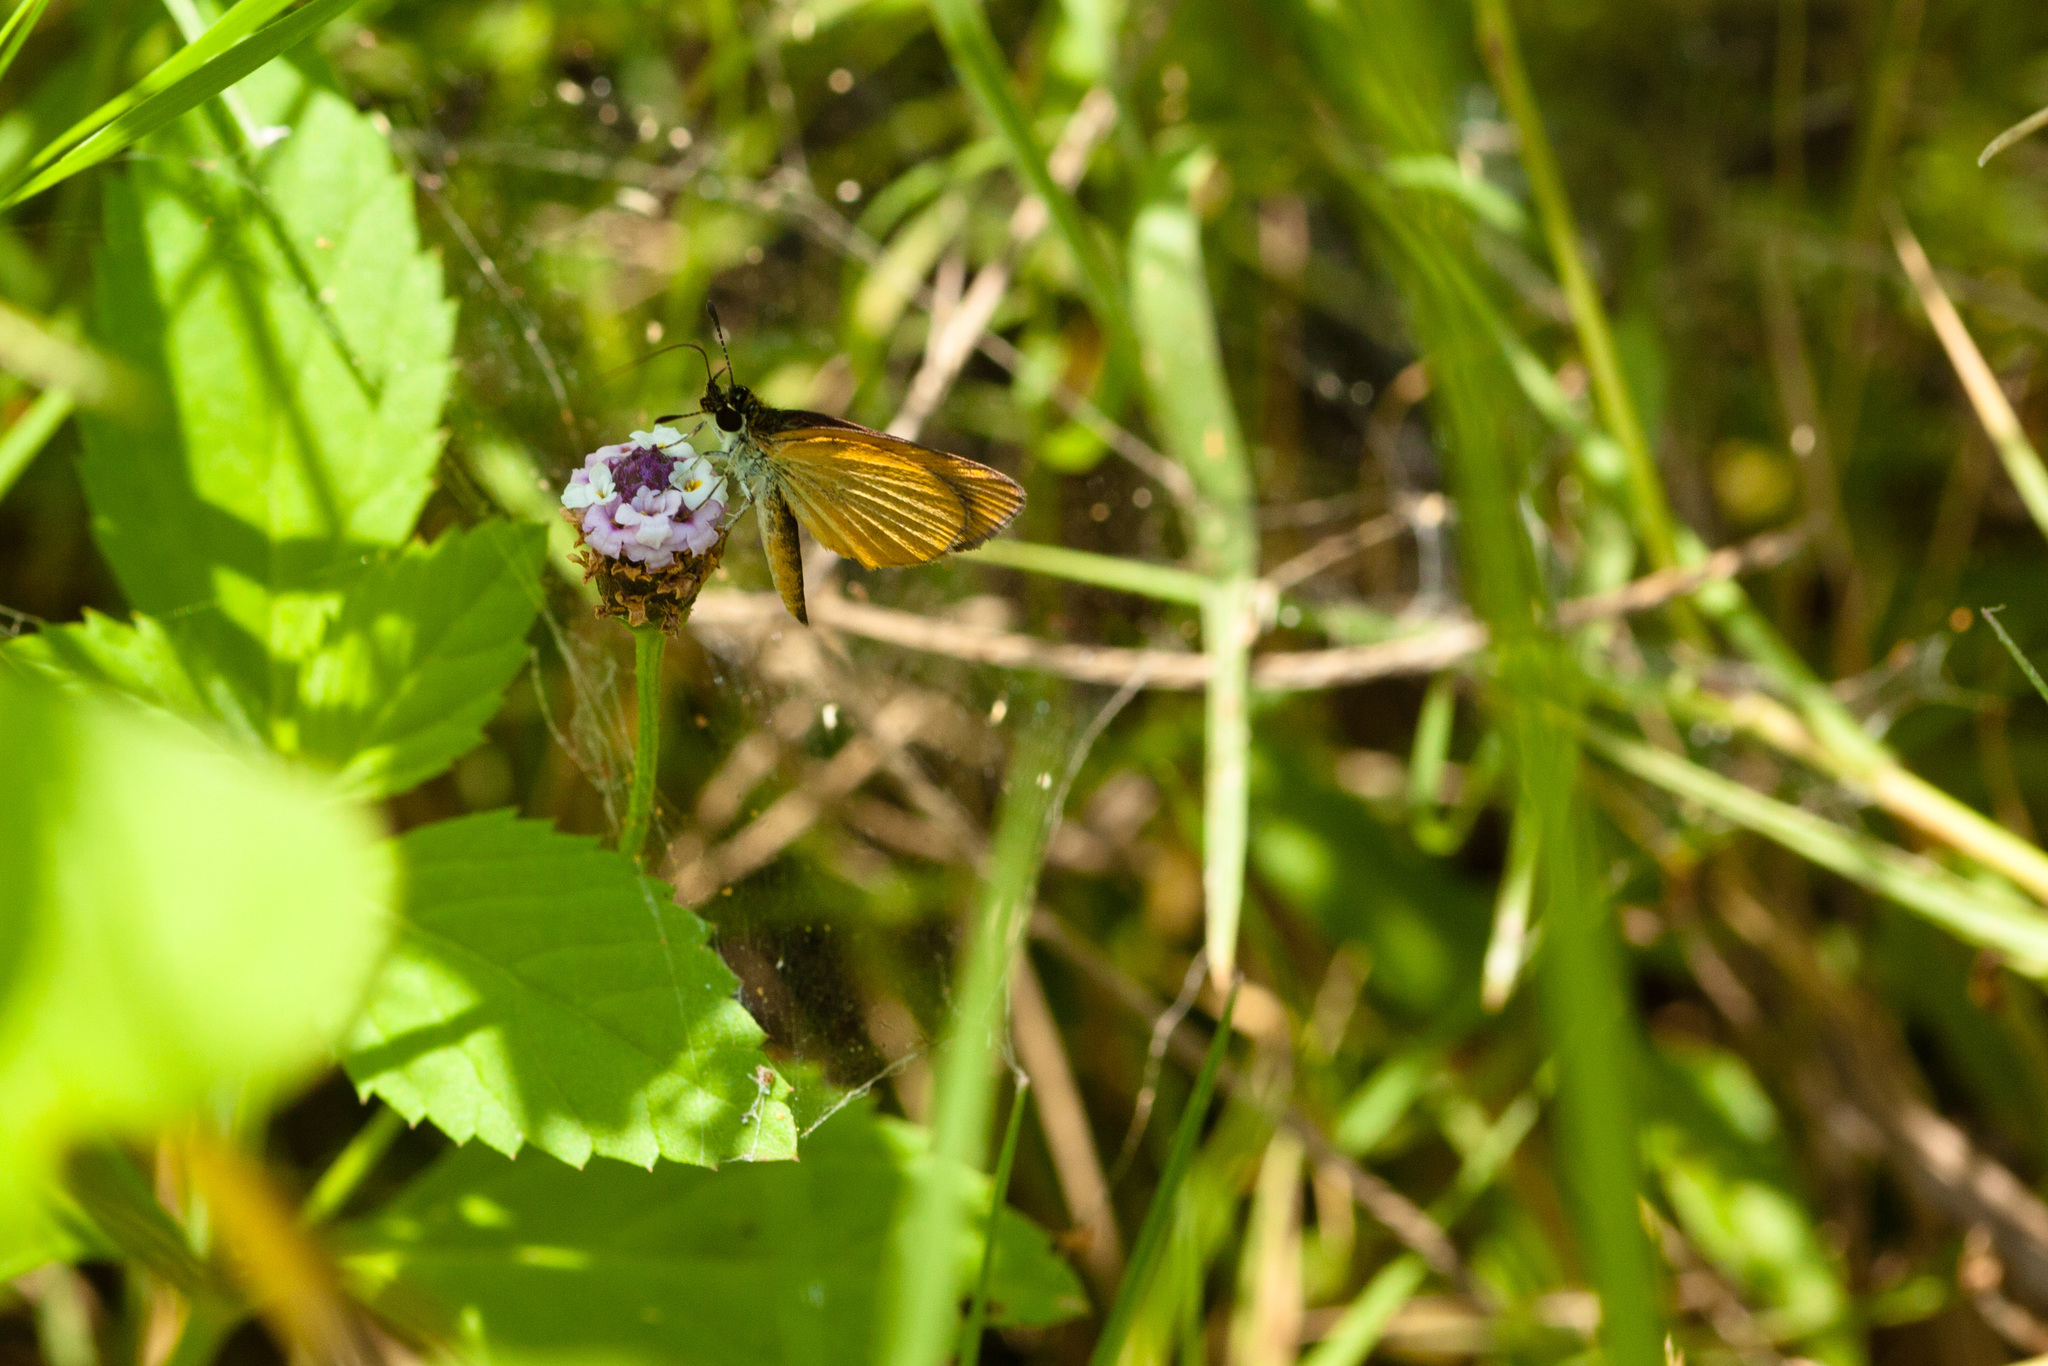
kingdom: Animalia
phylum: Arthropoda
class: Insecta
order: Lepidoptera
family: Hesperiidae
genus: Ancyloxypha
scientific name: Ancyloxypha numitor
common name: Least skipper
